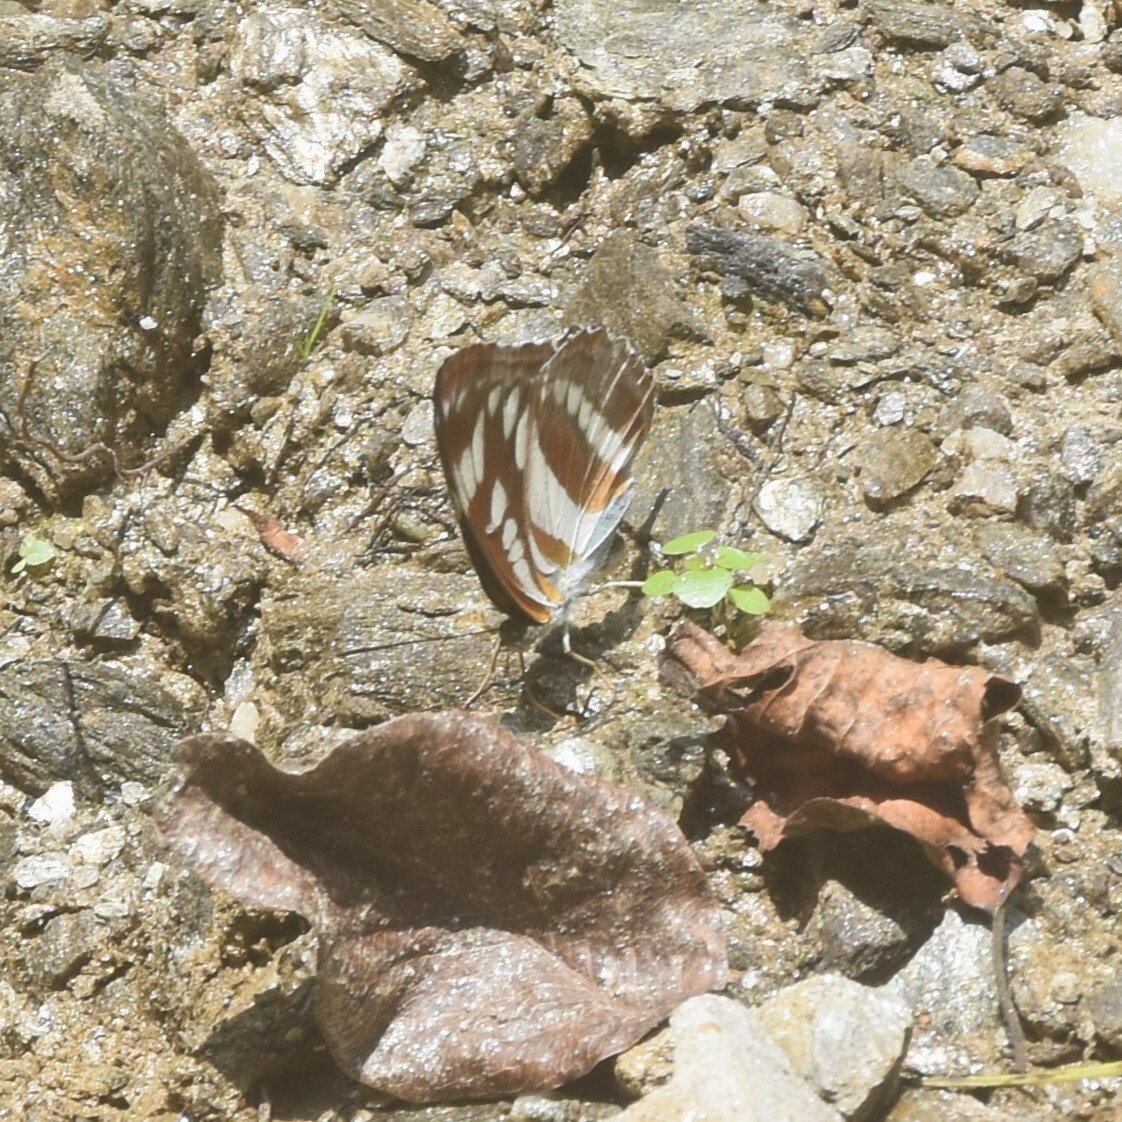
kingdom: Animalia
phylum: Arthropoda
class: Insecta
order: Lepidoptera
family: Nymphalidae
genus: Parathyma
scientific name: Parathyma opalina
